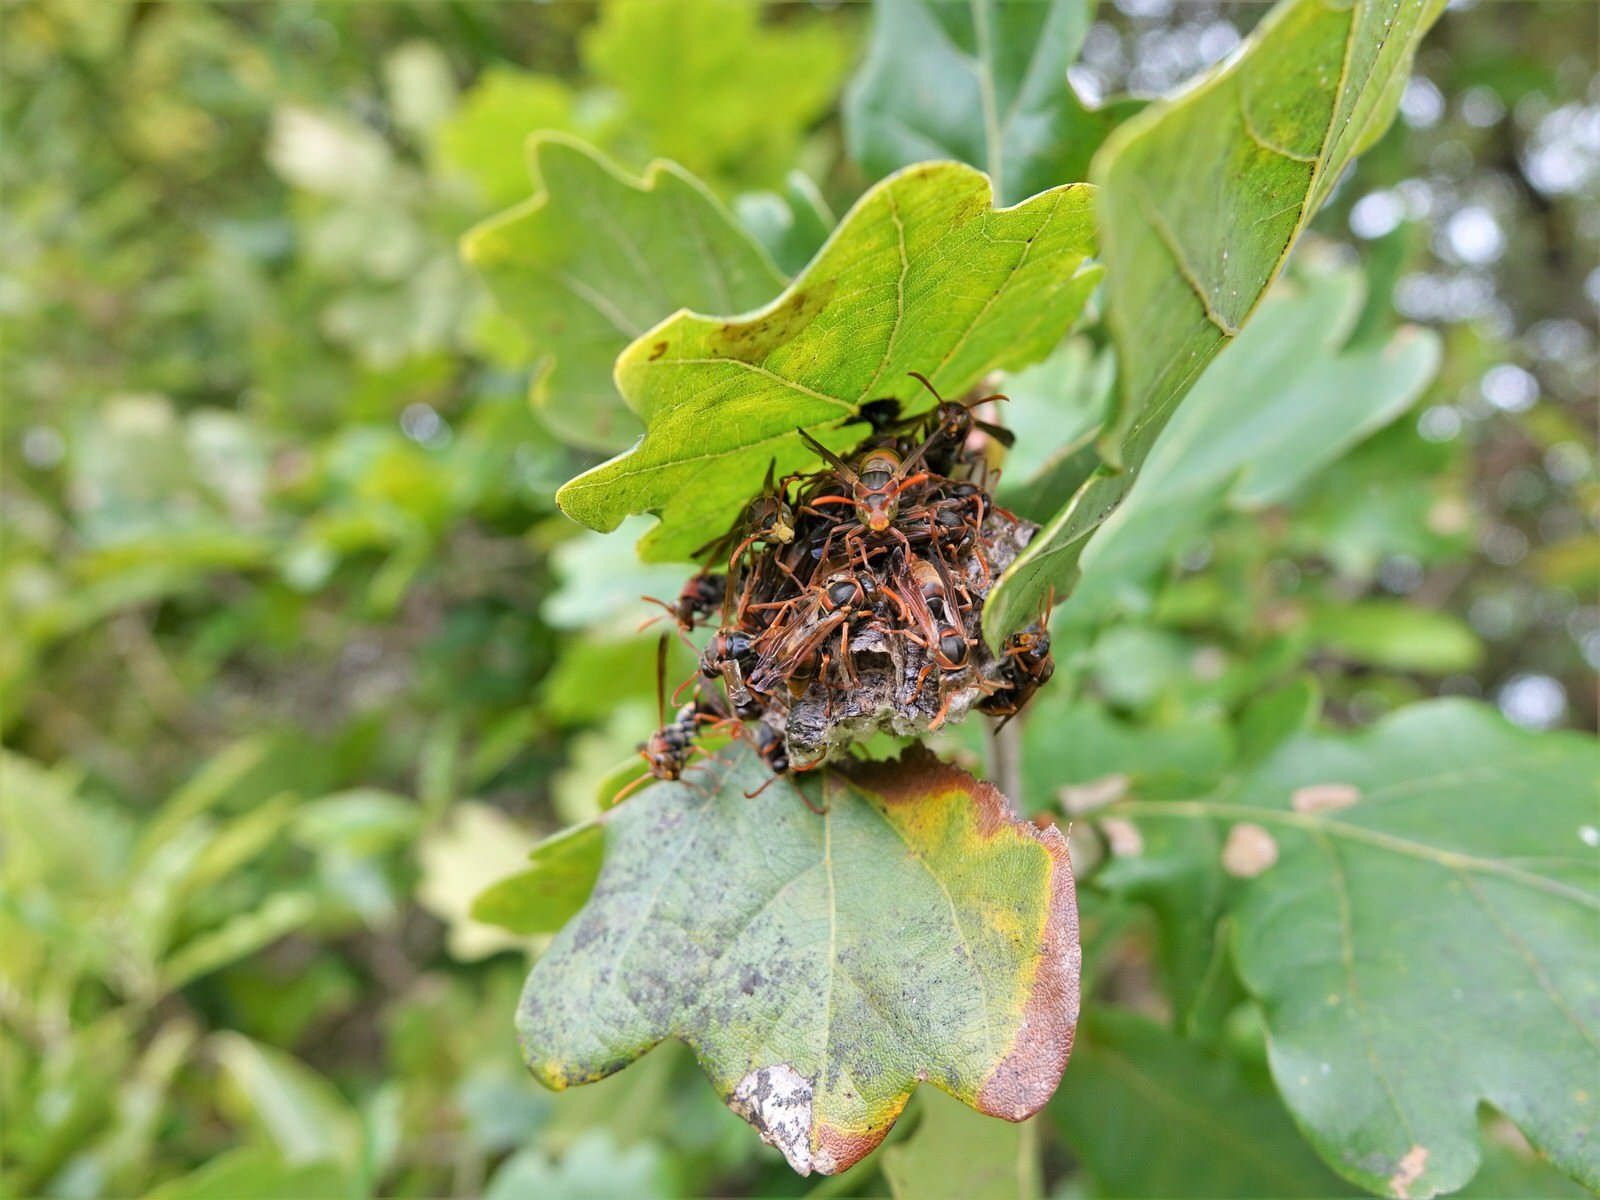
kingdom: Animalia
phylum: Arthropoda
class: Insecta
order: Hymenoptera
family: Eumenidae
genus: Polistes
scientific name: Polistes humilis
